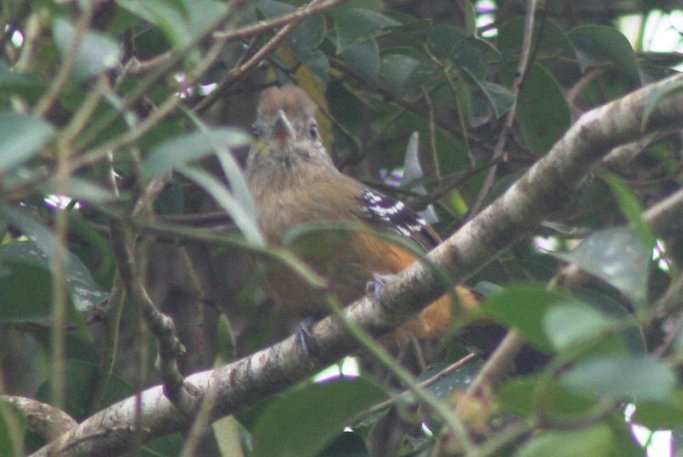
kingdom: Animalia
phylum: Chordata
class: Aves
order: Passeriformes
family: Thamnophilidae
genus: Thamnophilus
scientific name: Thamnophilus caerulescens
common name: Variable antshrike
